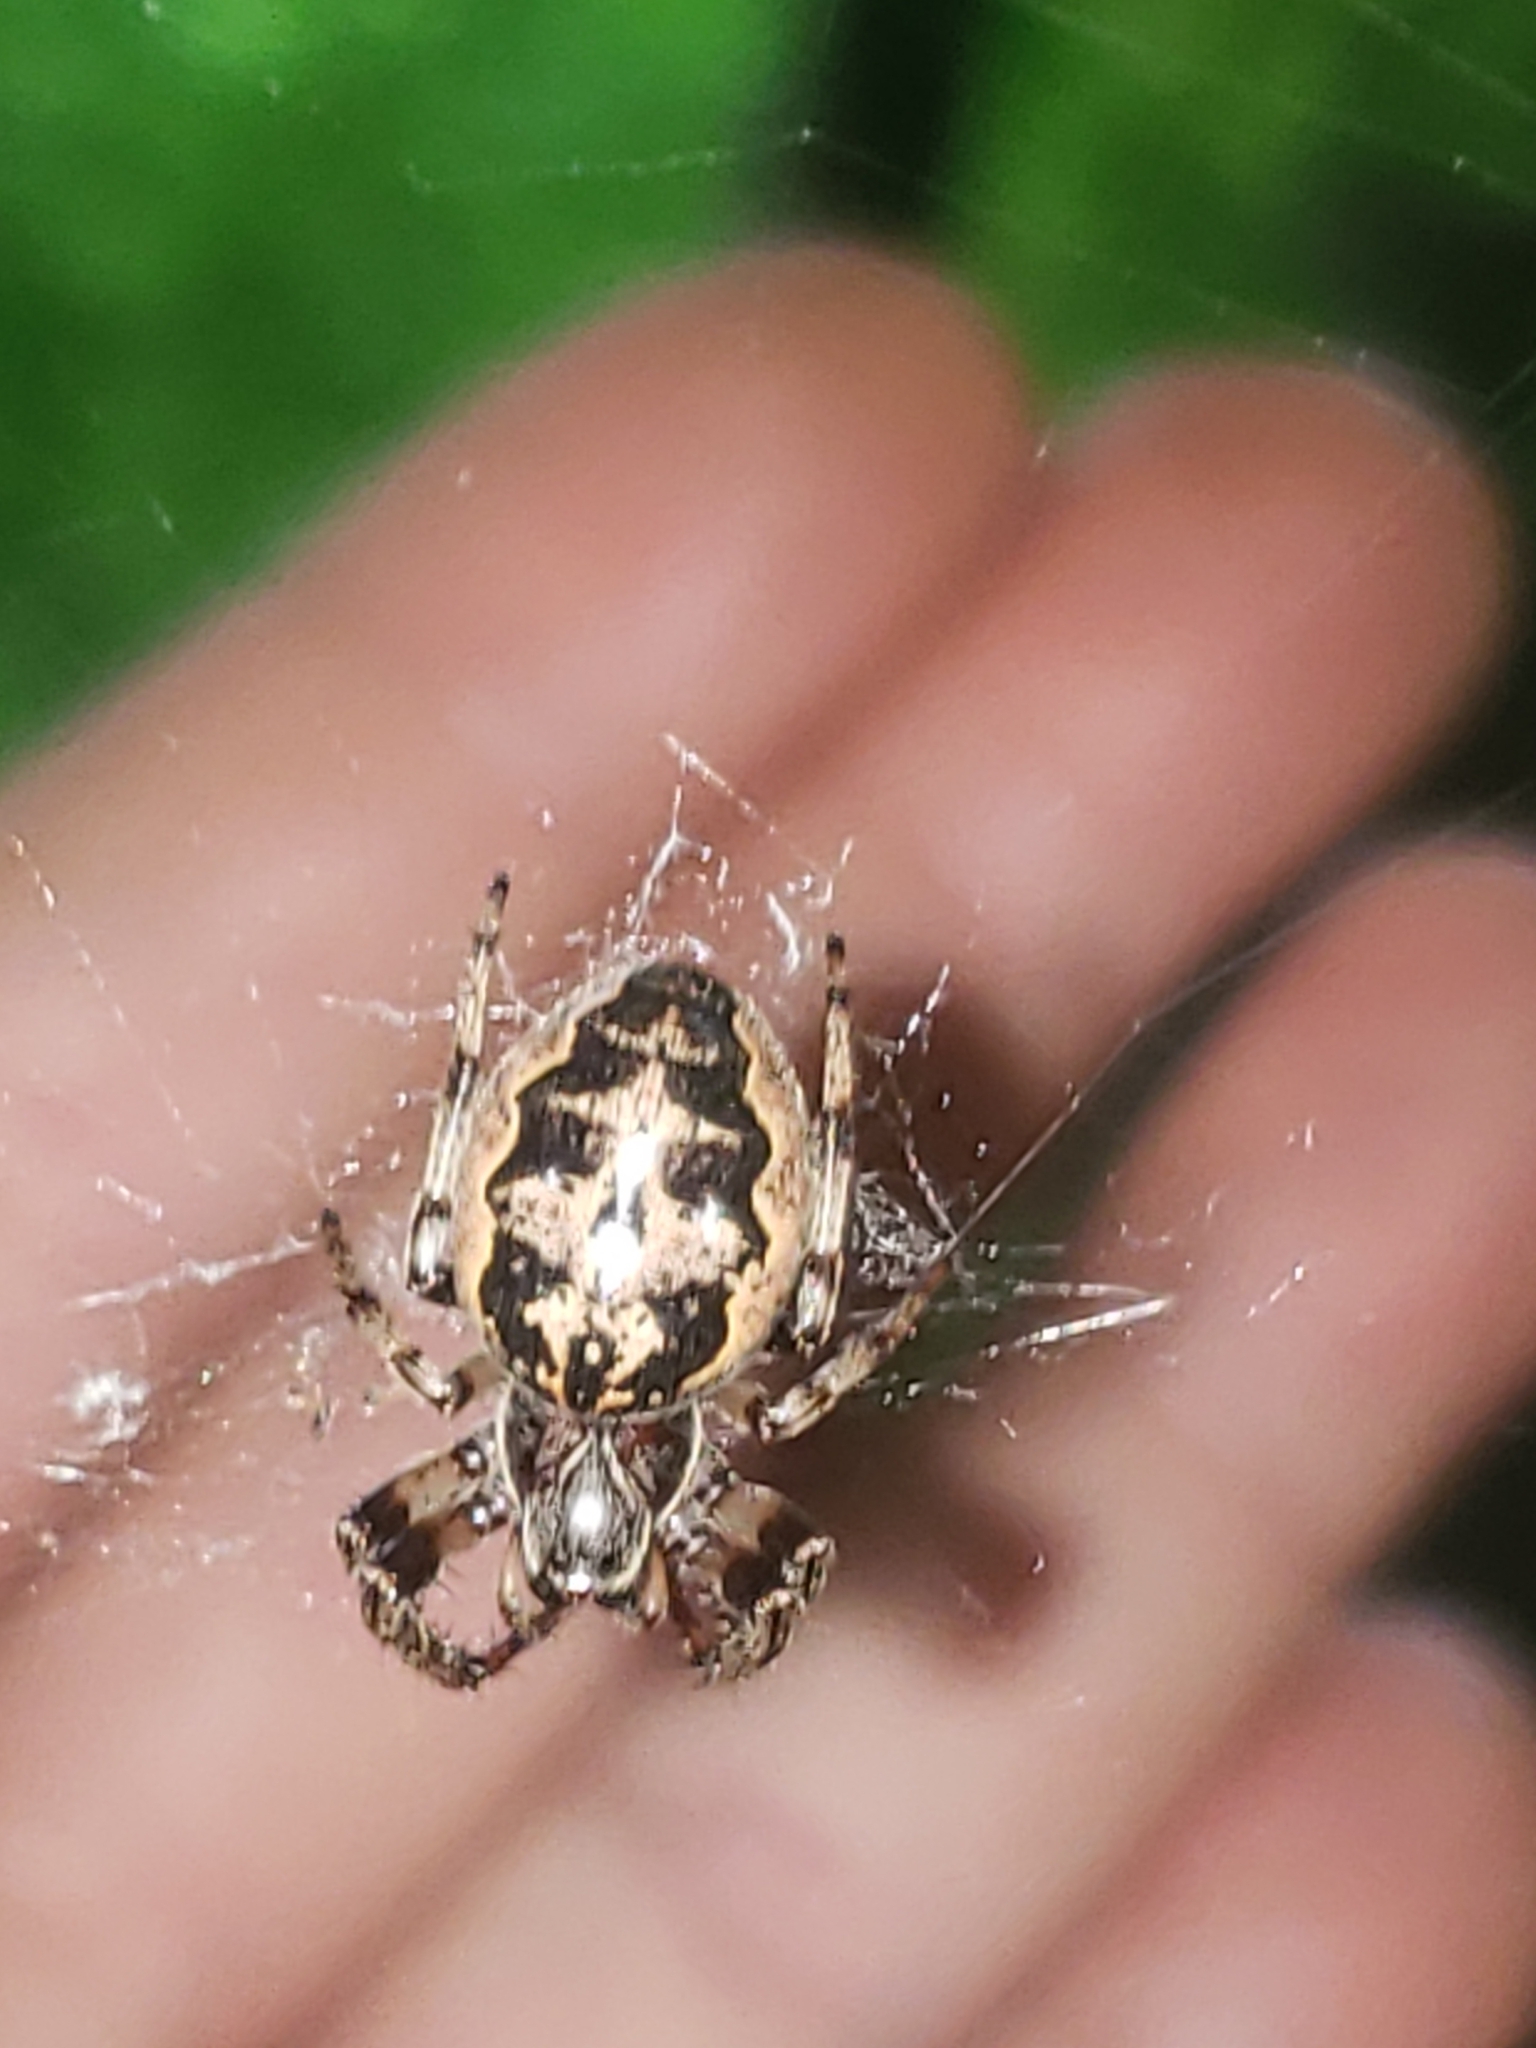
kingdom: Animalia
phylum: Arthropoda
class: Arachnida
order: Araneae
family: Araneidae
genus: Larinioides
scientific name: Larinioides cornutus
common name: Furrow orbweaver
